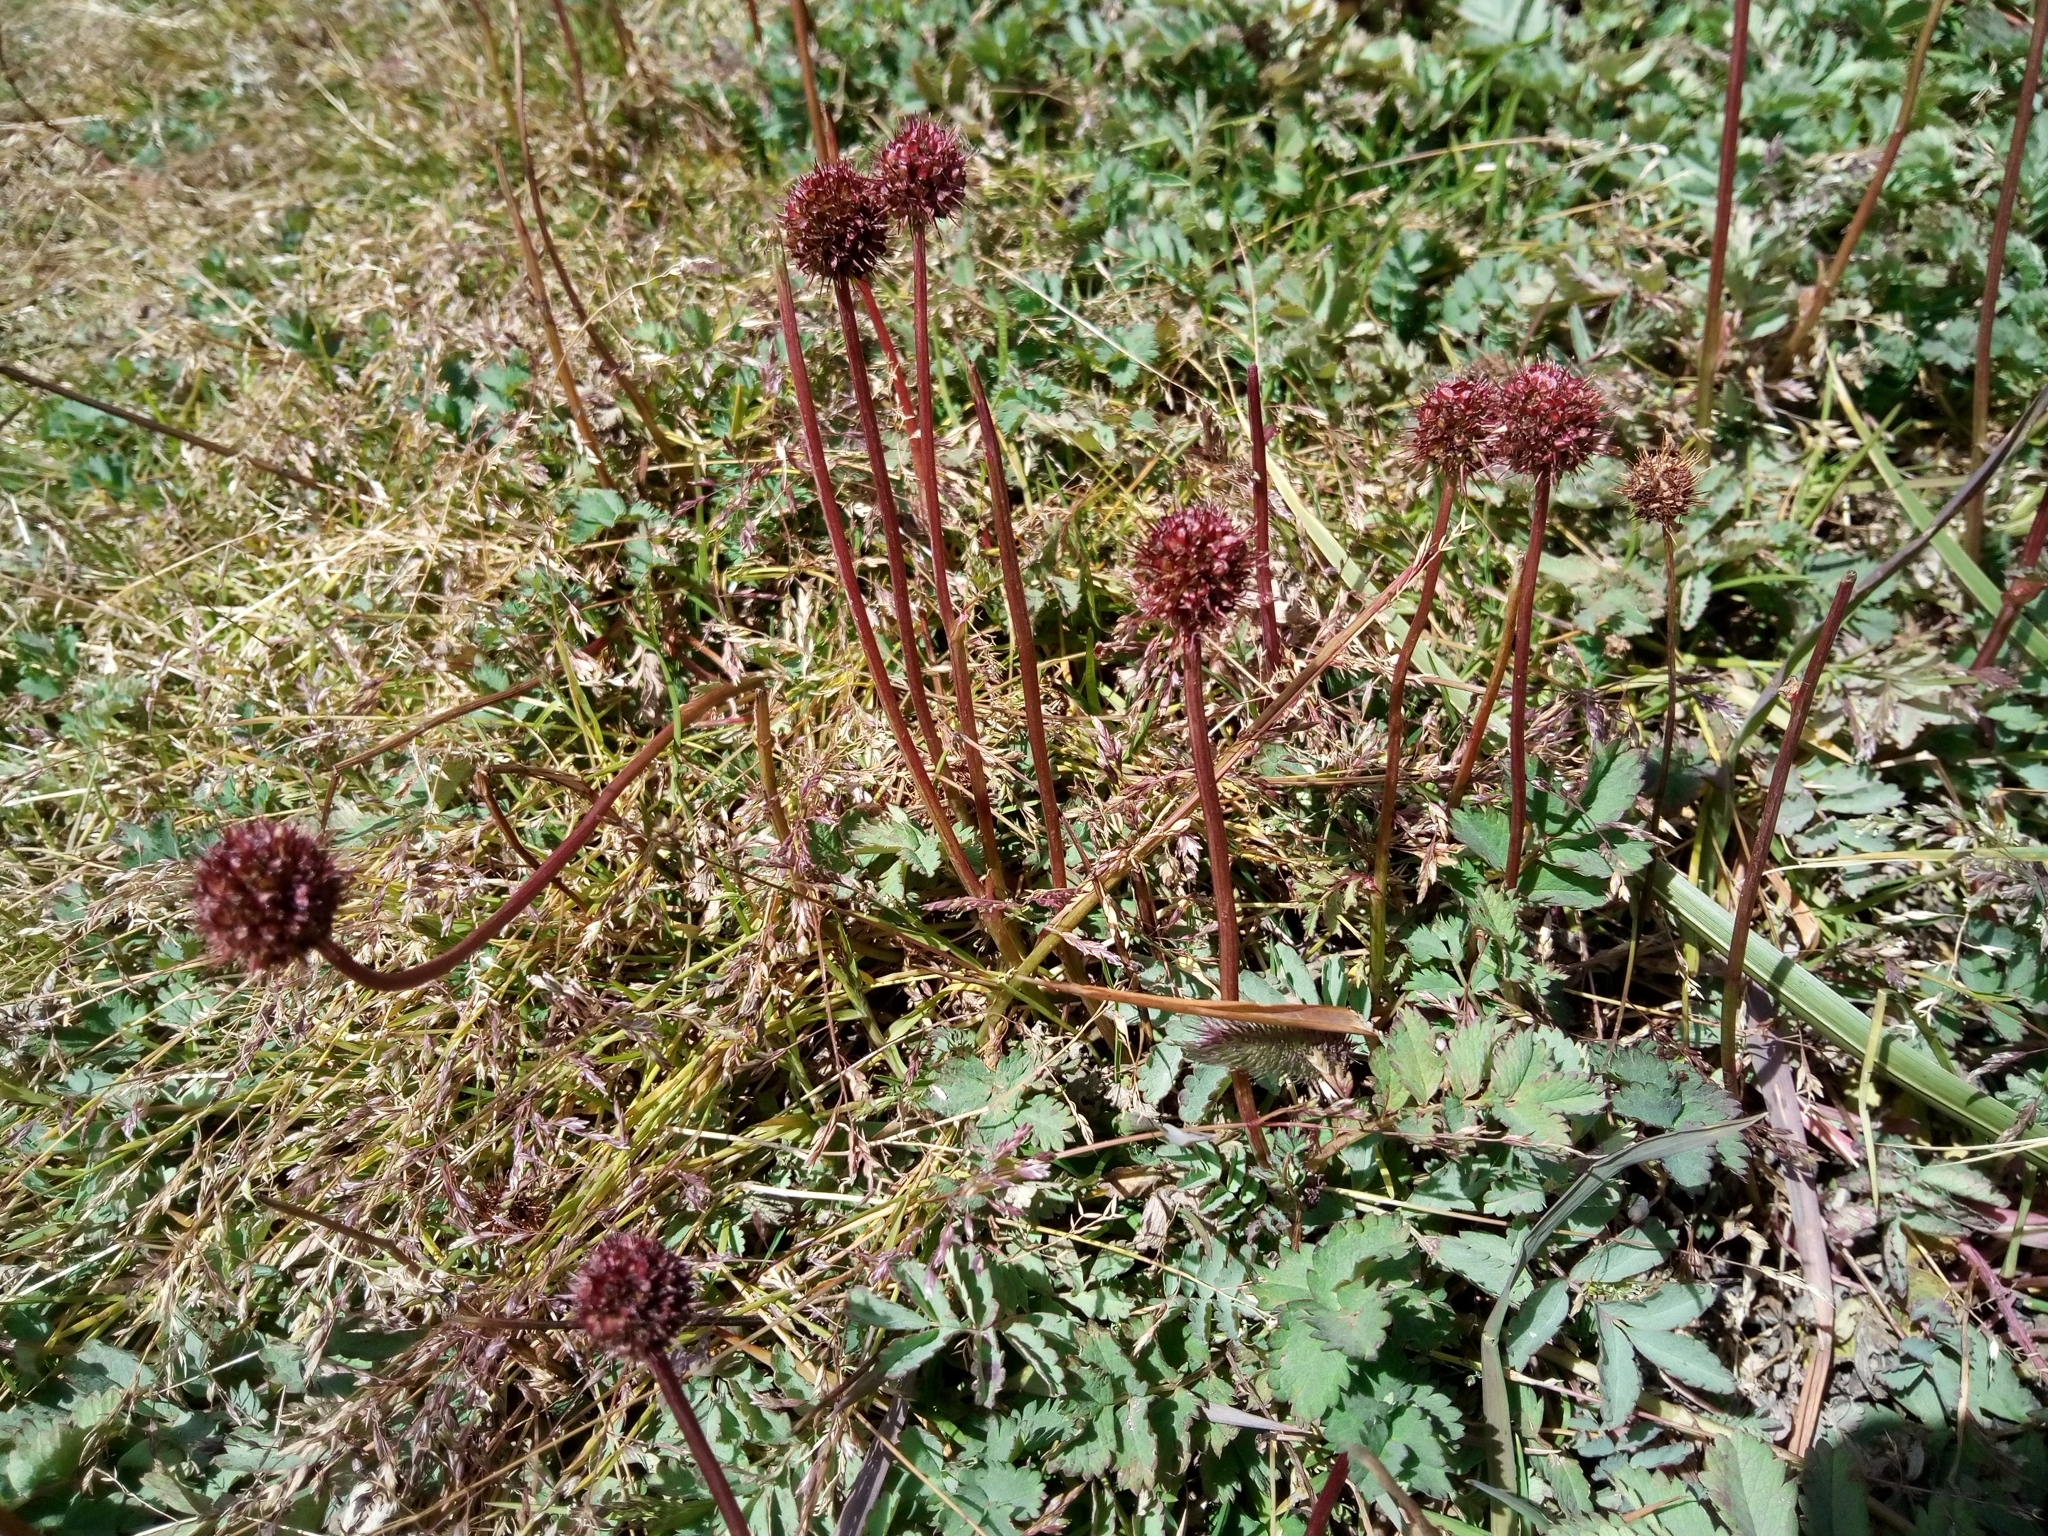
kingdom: Plantae
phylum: Tracheophyta
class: Magnoliopsida
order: Rosales
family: Rosaceae
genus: Acaena
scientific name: Acaena magellanica
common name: New zealand burr
